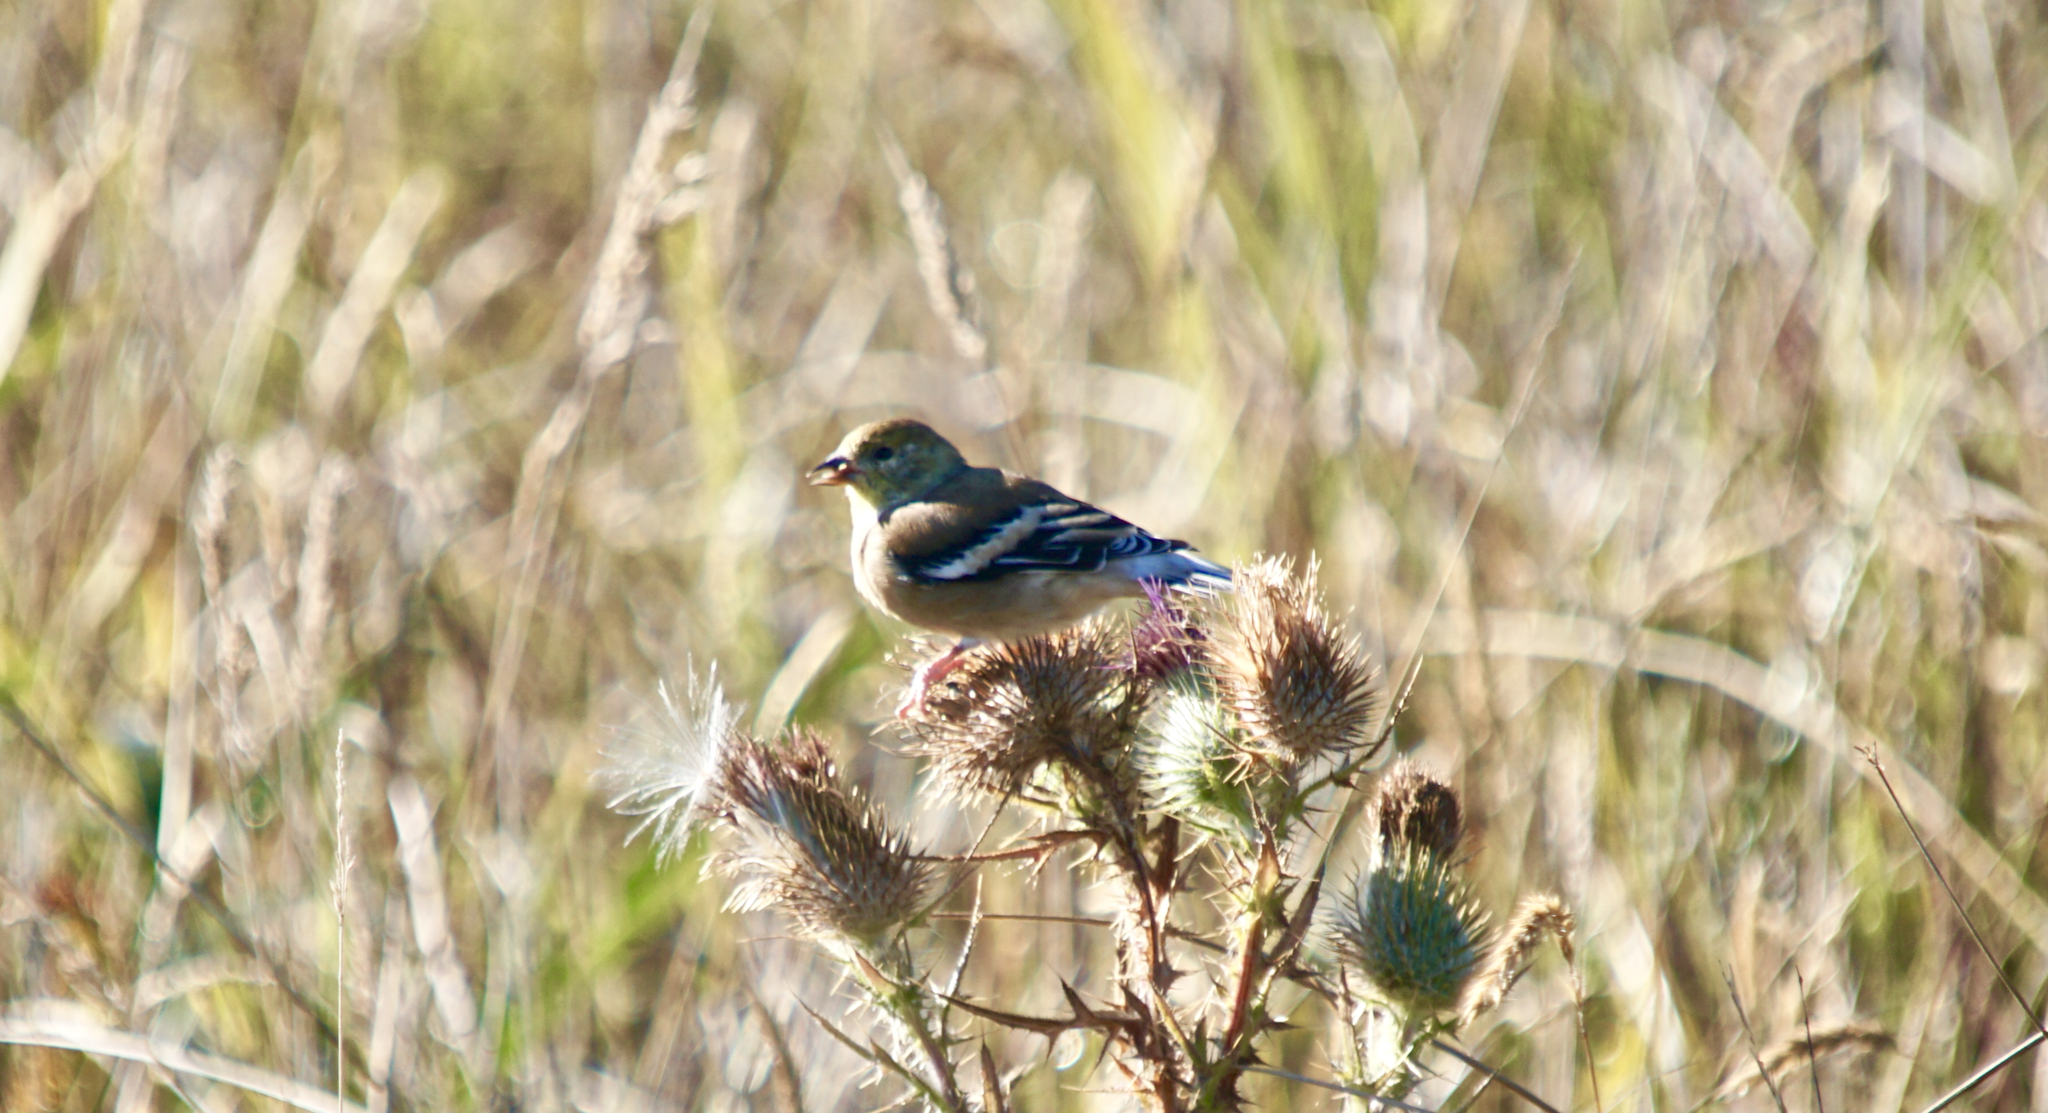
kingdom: Animalia
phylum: Chordata
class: Aves
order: Passeriformes
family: Fringillidae
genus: Spinus
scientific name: Spinus tristis
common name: American goldfinch
